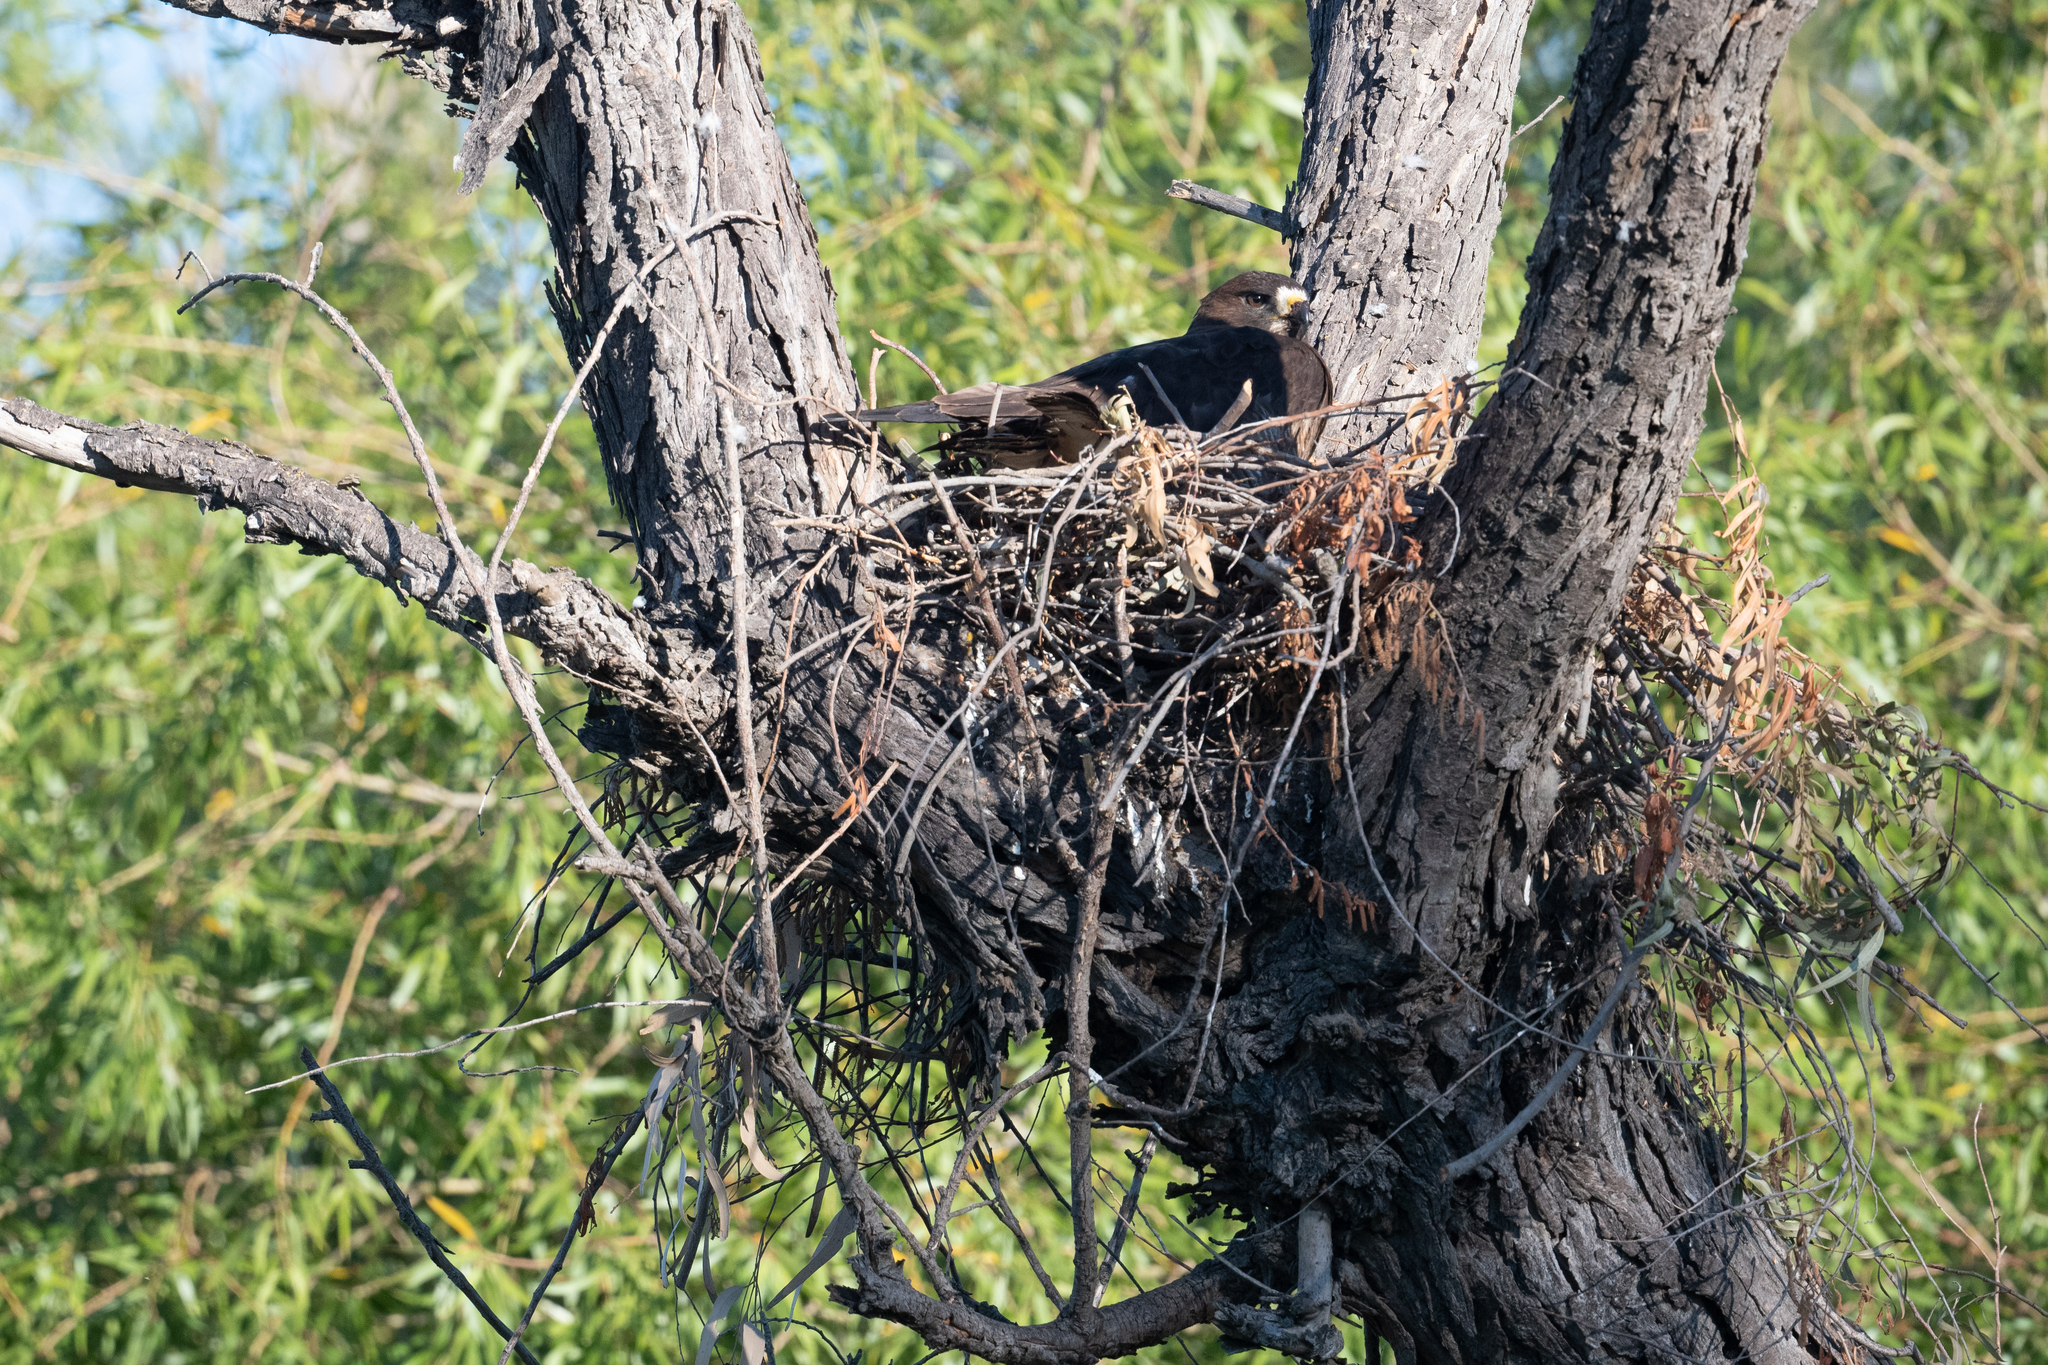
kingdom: Animalia
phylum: Chordata
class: Aves
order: Accipitriformes
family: Accipitridae
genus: Buteo
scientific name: Buteo swainsoni
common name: Swainson's hawk
